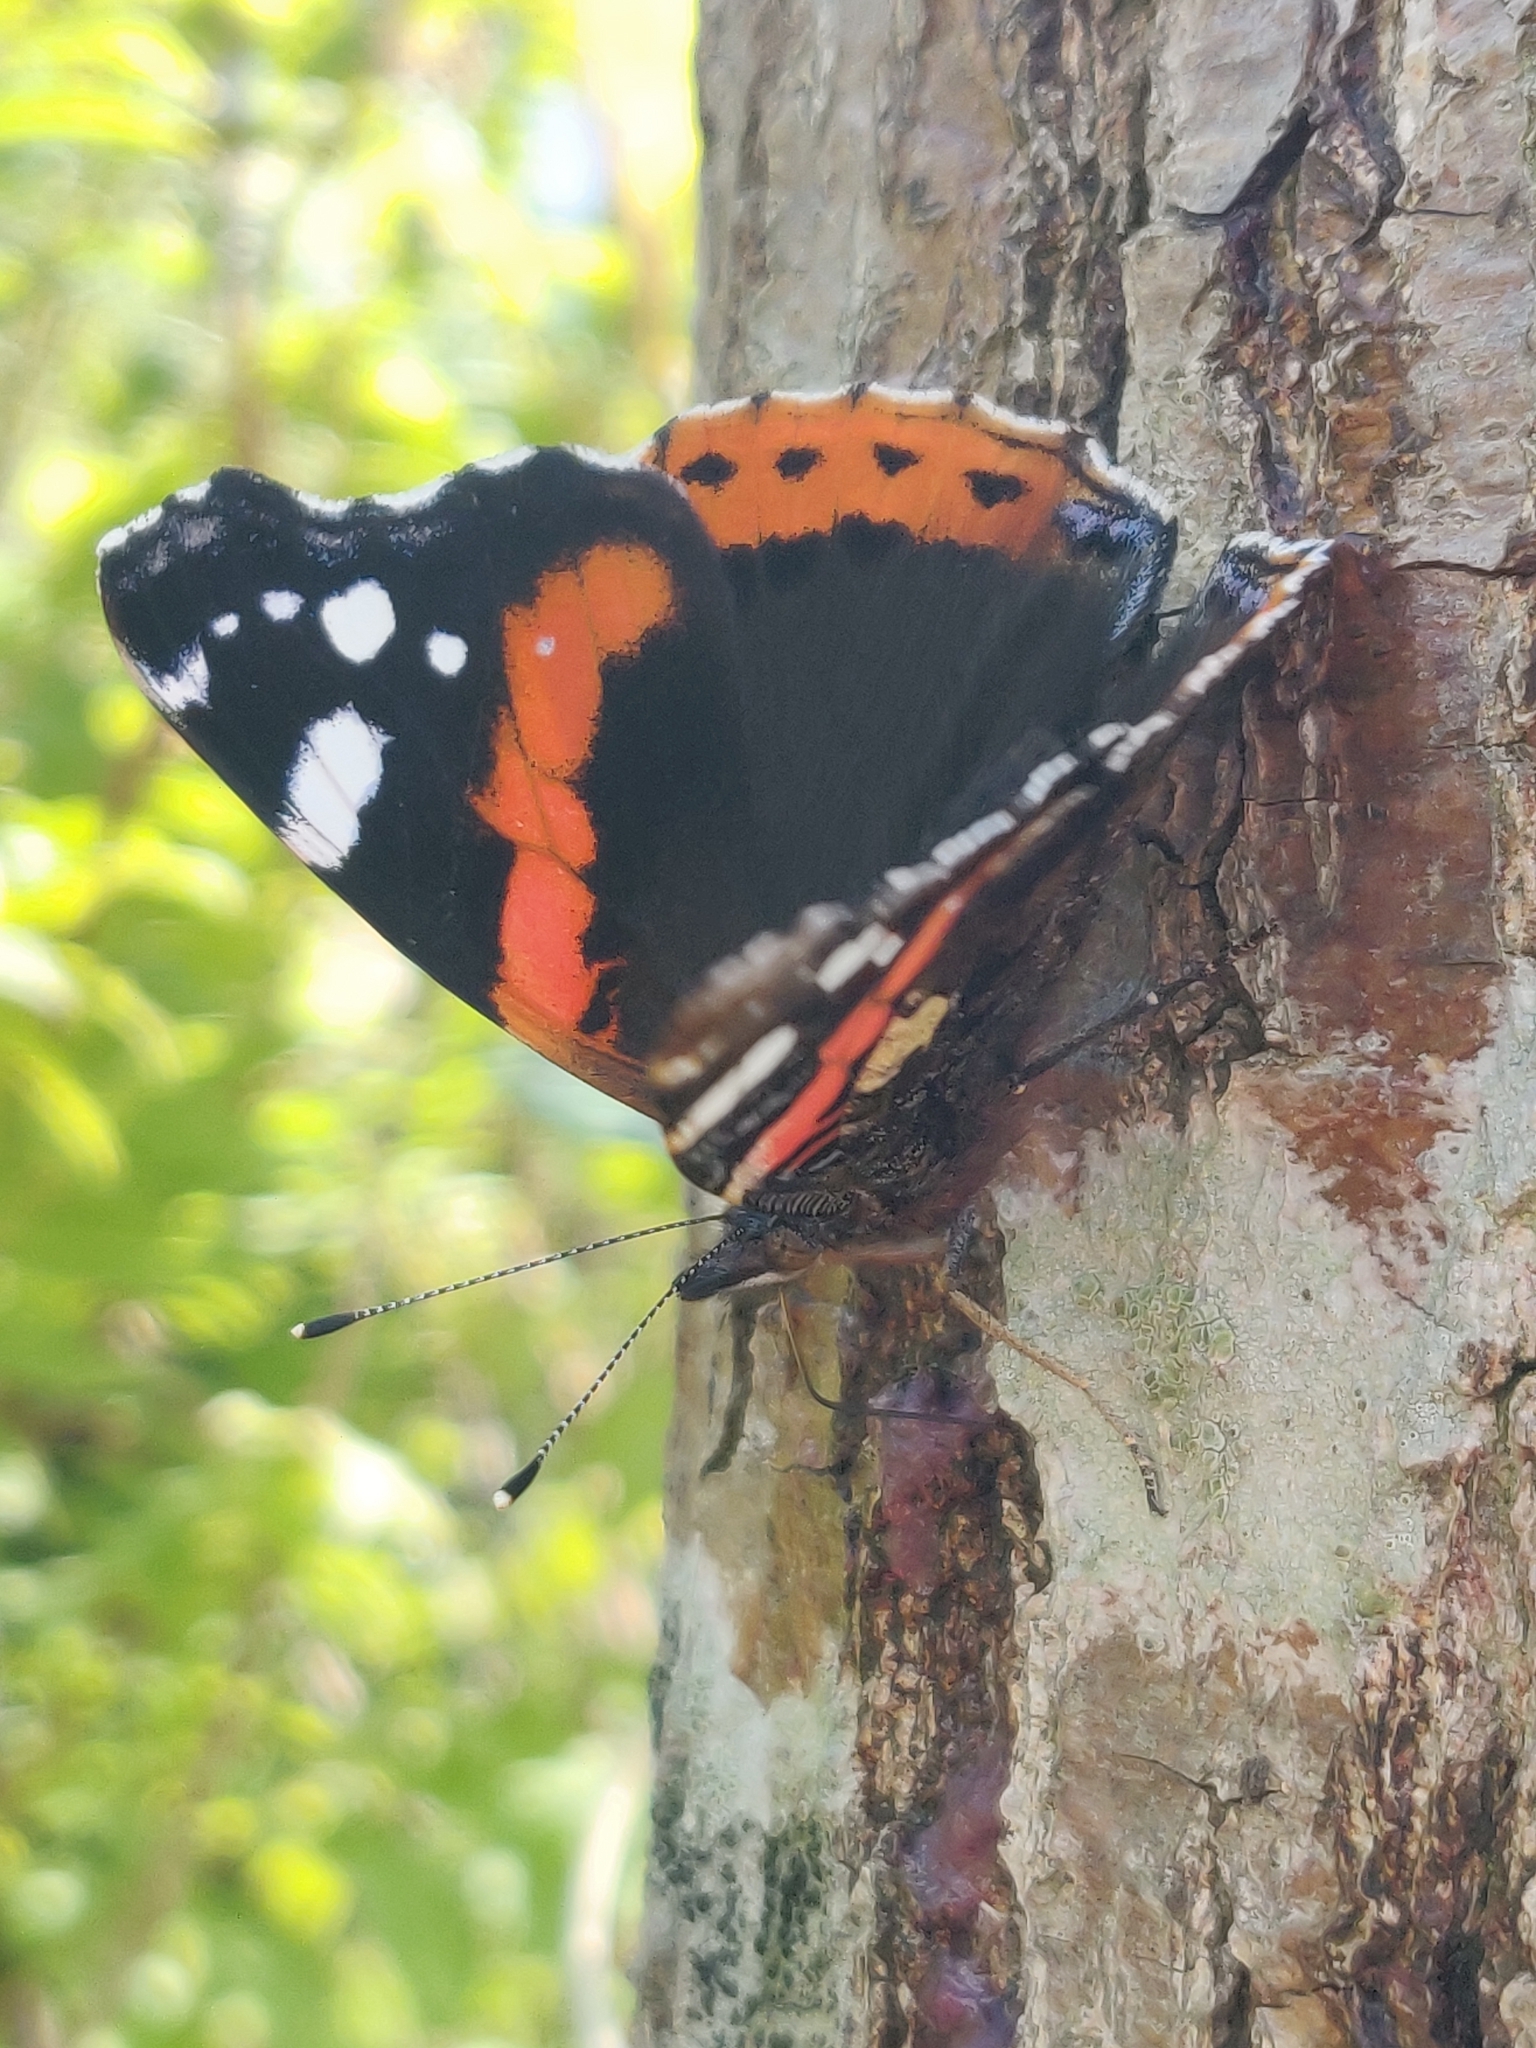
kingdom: Animalia
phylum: Arthropoda
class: Insecta
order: Lepidoptera
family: Nymphalidae
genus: Vanessa
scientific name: Vanessa atalanta
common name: Red admiral
